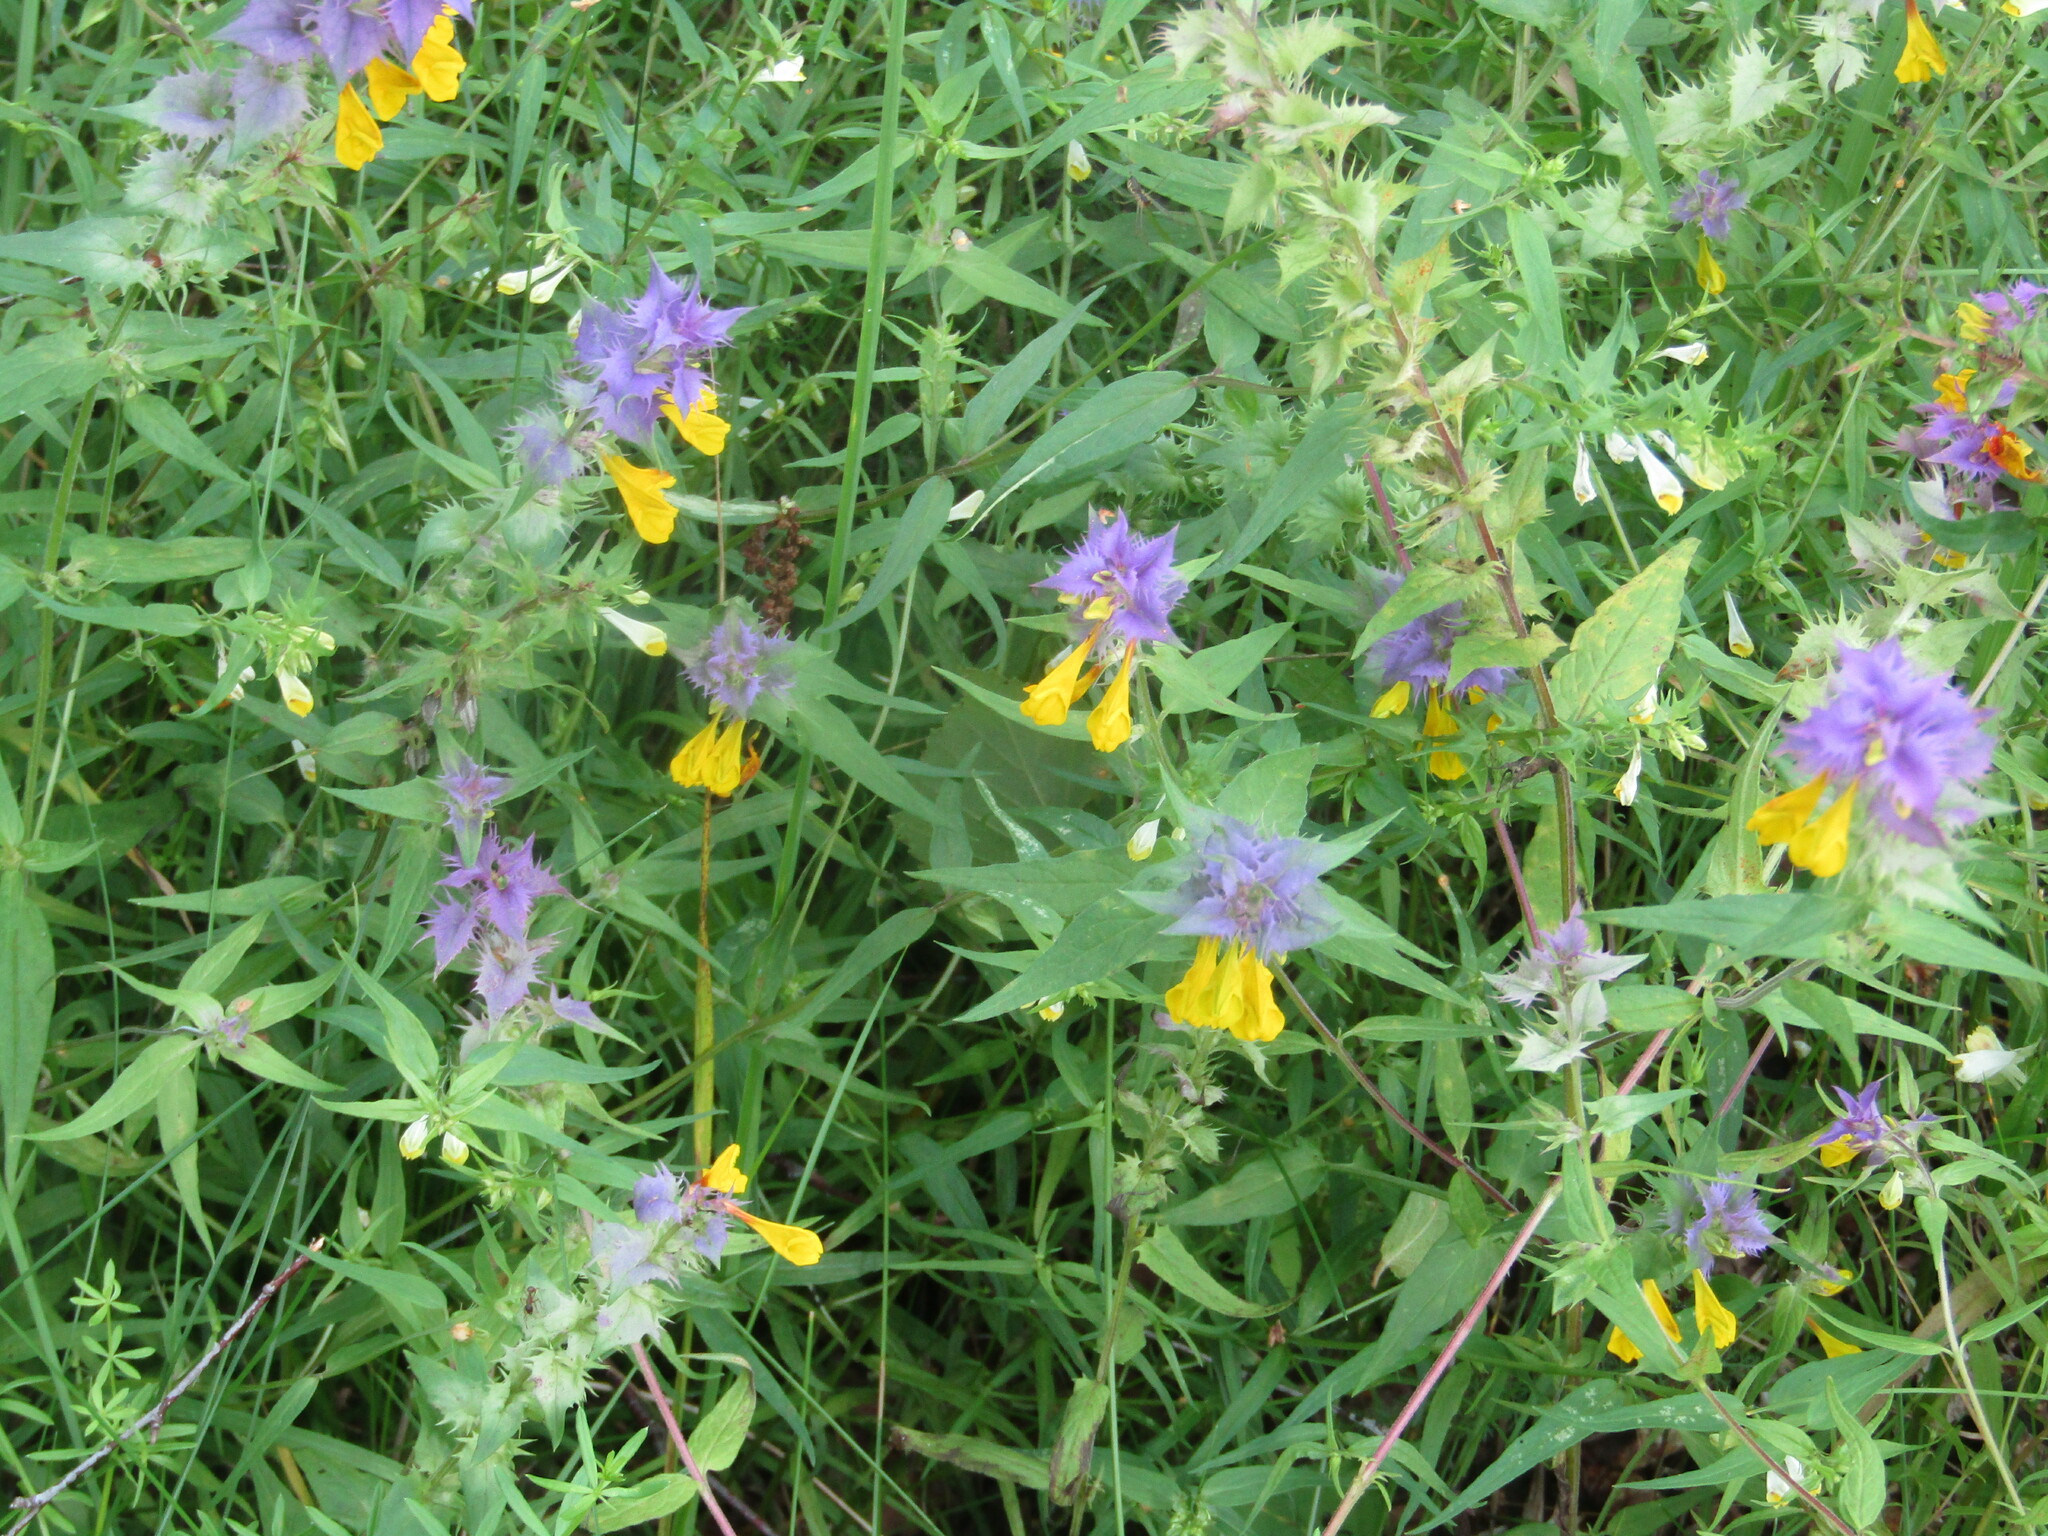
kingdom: Plantae
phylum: Tracheophyta
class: Magnoliopsida
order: Lamiales
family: Orobanchaceae
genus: Melampyrum
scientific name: Melampyrum nemorosum
